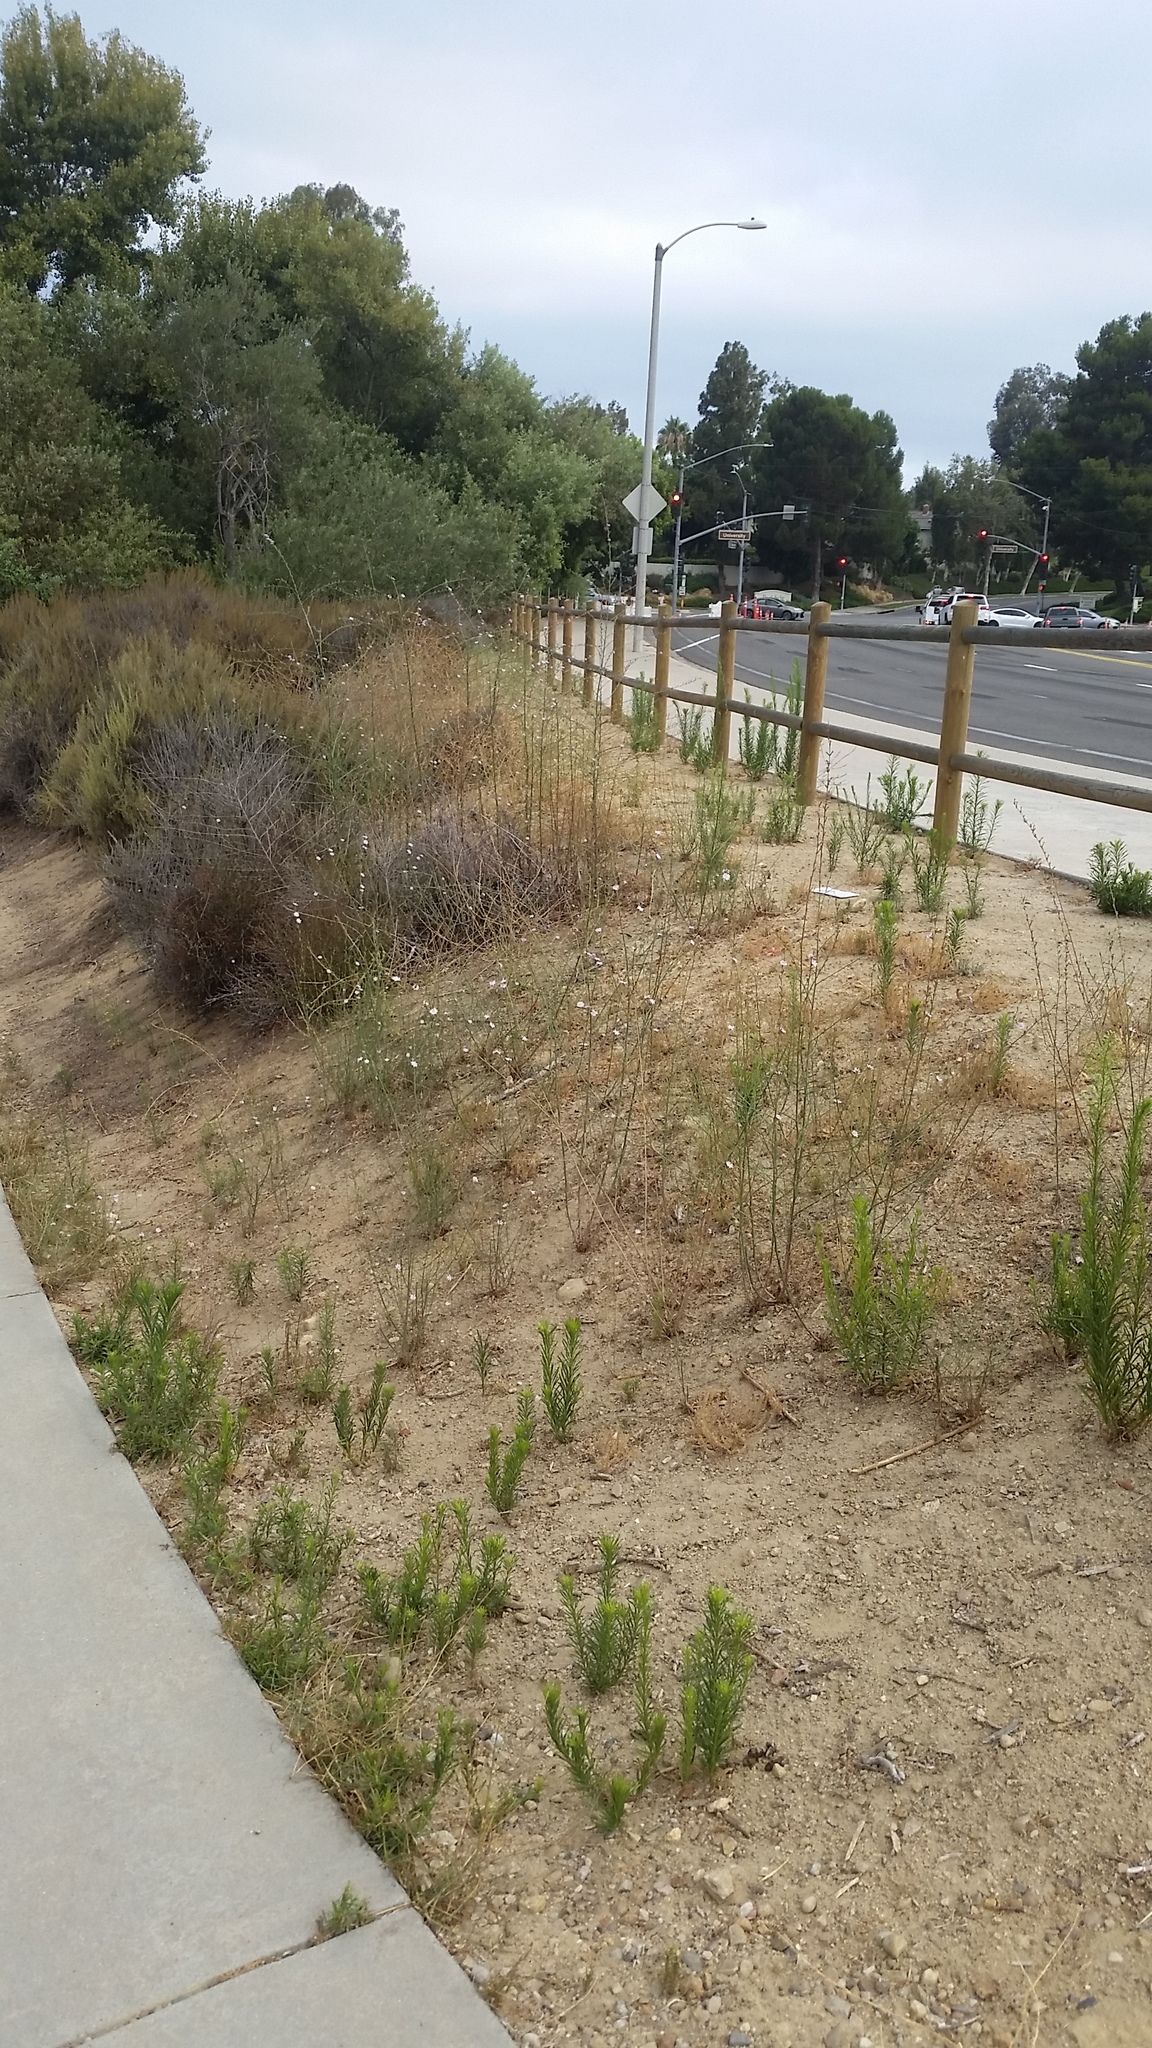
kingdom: Plantae
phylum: Tracheophyta
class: Magnoliopsida
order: Asterales
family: Asteraceae
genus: Stephanomeria
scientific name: Stephanomeria diegensis
